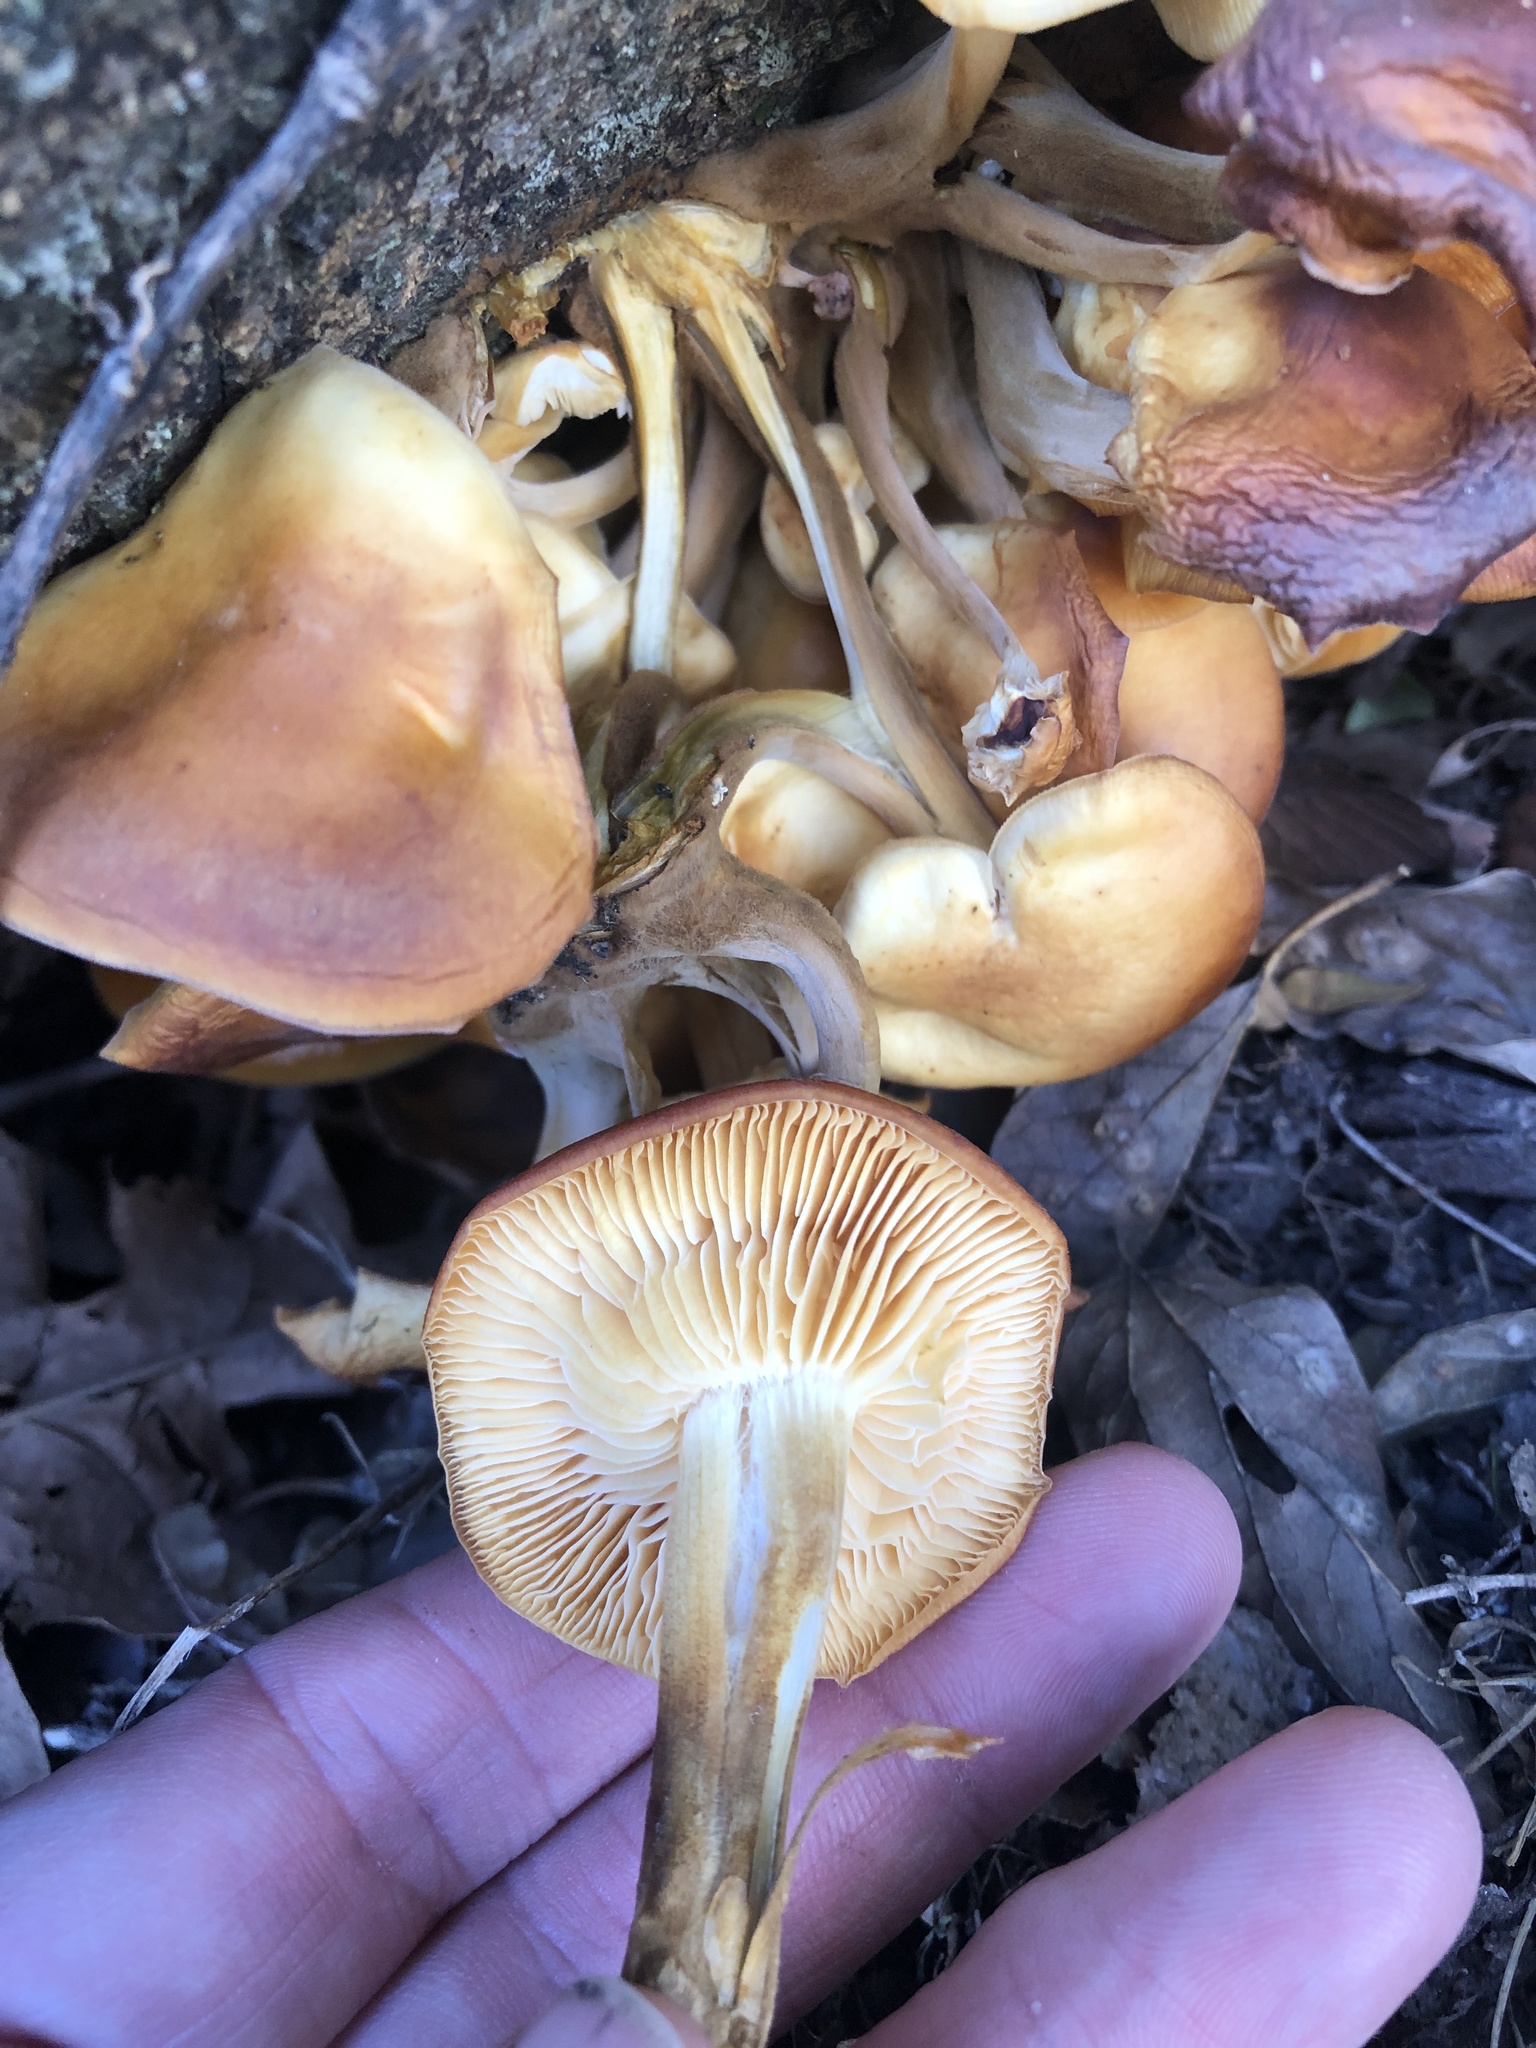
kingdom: Fungi
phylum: Basidiomycota
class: Agaricomycetes
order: Agaricales
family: Physalacriaceae
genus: Flammulina
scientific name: Flammulina velutipes
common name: Velvet shank
